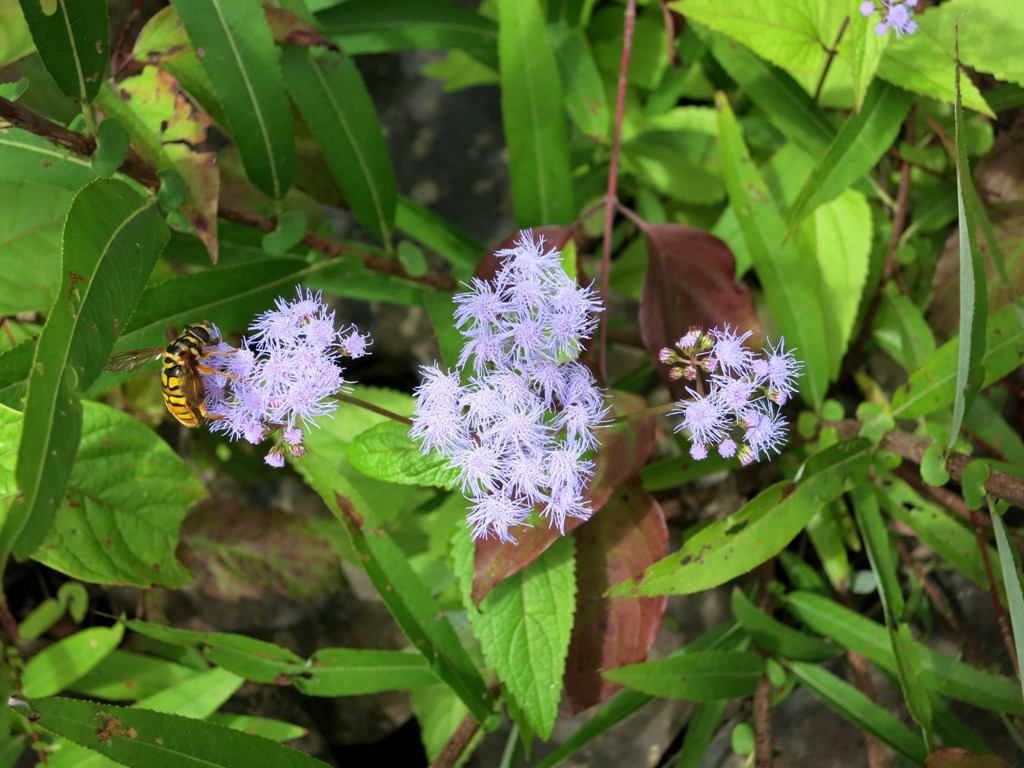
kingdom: Animalia
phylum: Arthropoda
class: Insecta
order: Diptera
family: Syrphidae
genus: Milesia
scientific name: Milesia virginiensis
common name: Virginia giant
